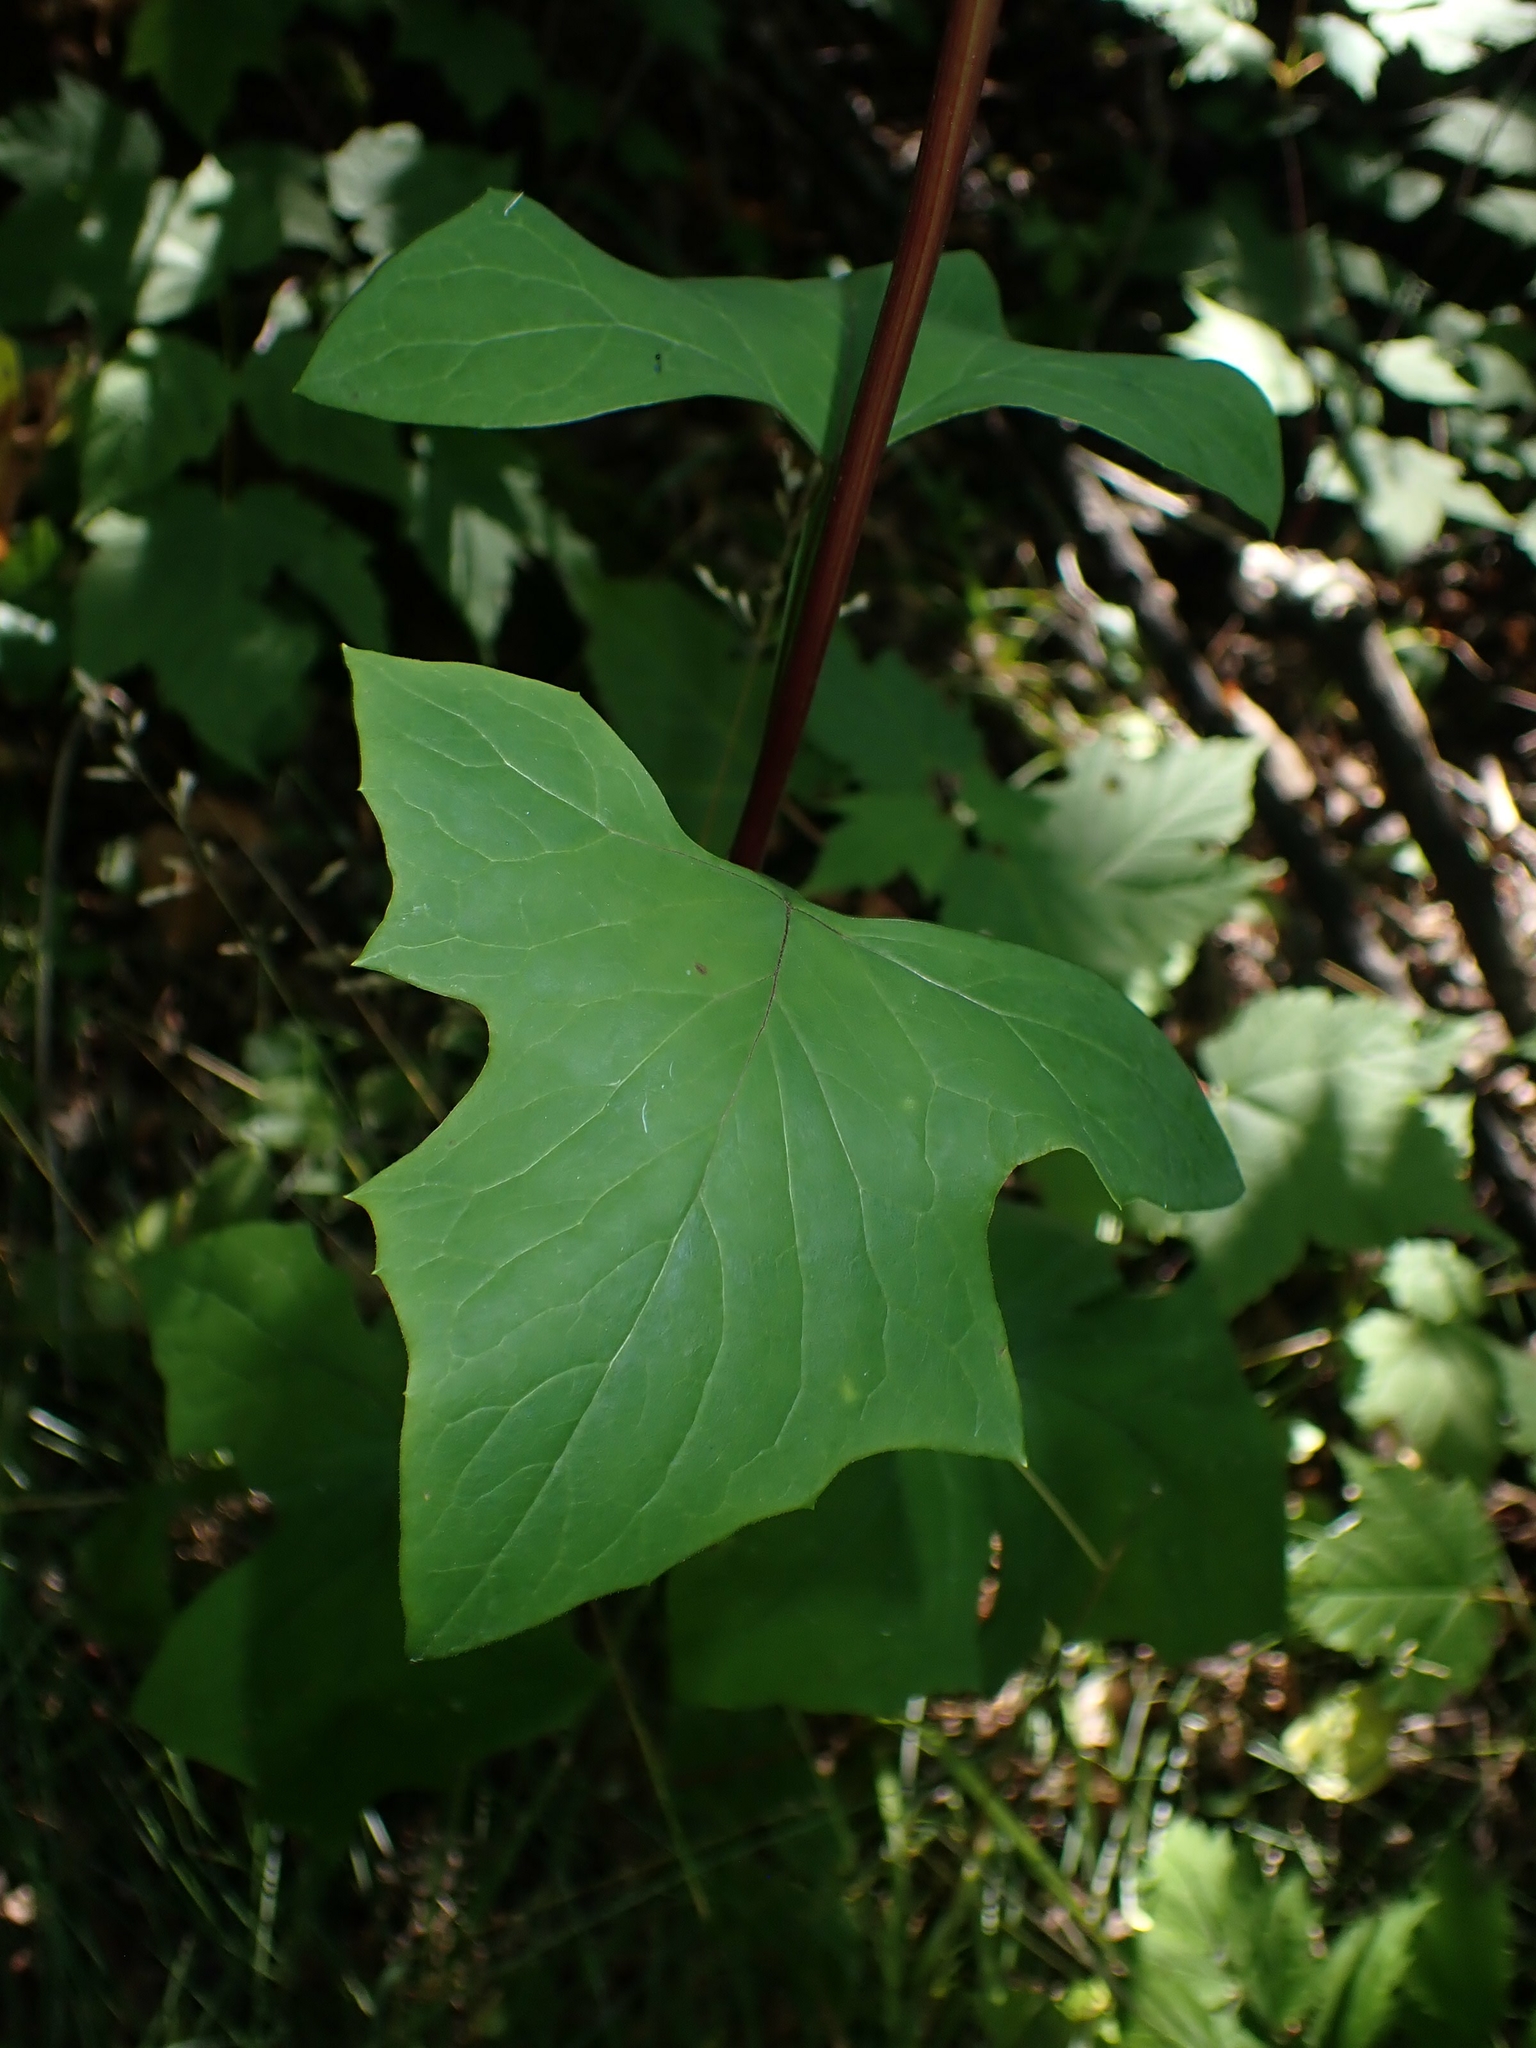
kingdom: Plantae
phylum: Tracheophyta
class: Magnoliopsida
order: Asterales
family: Asteraceae
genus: Nabalus
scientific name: Nabalus albus
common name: White rattlesnakeroot
